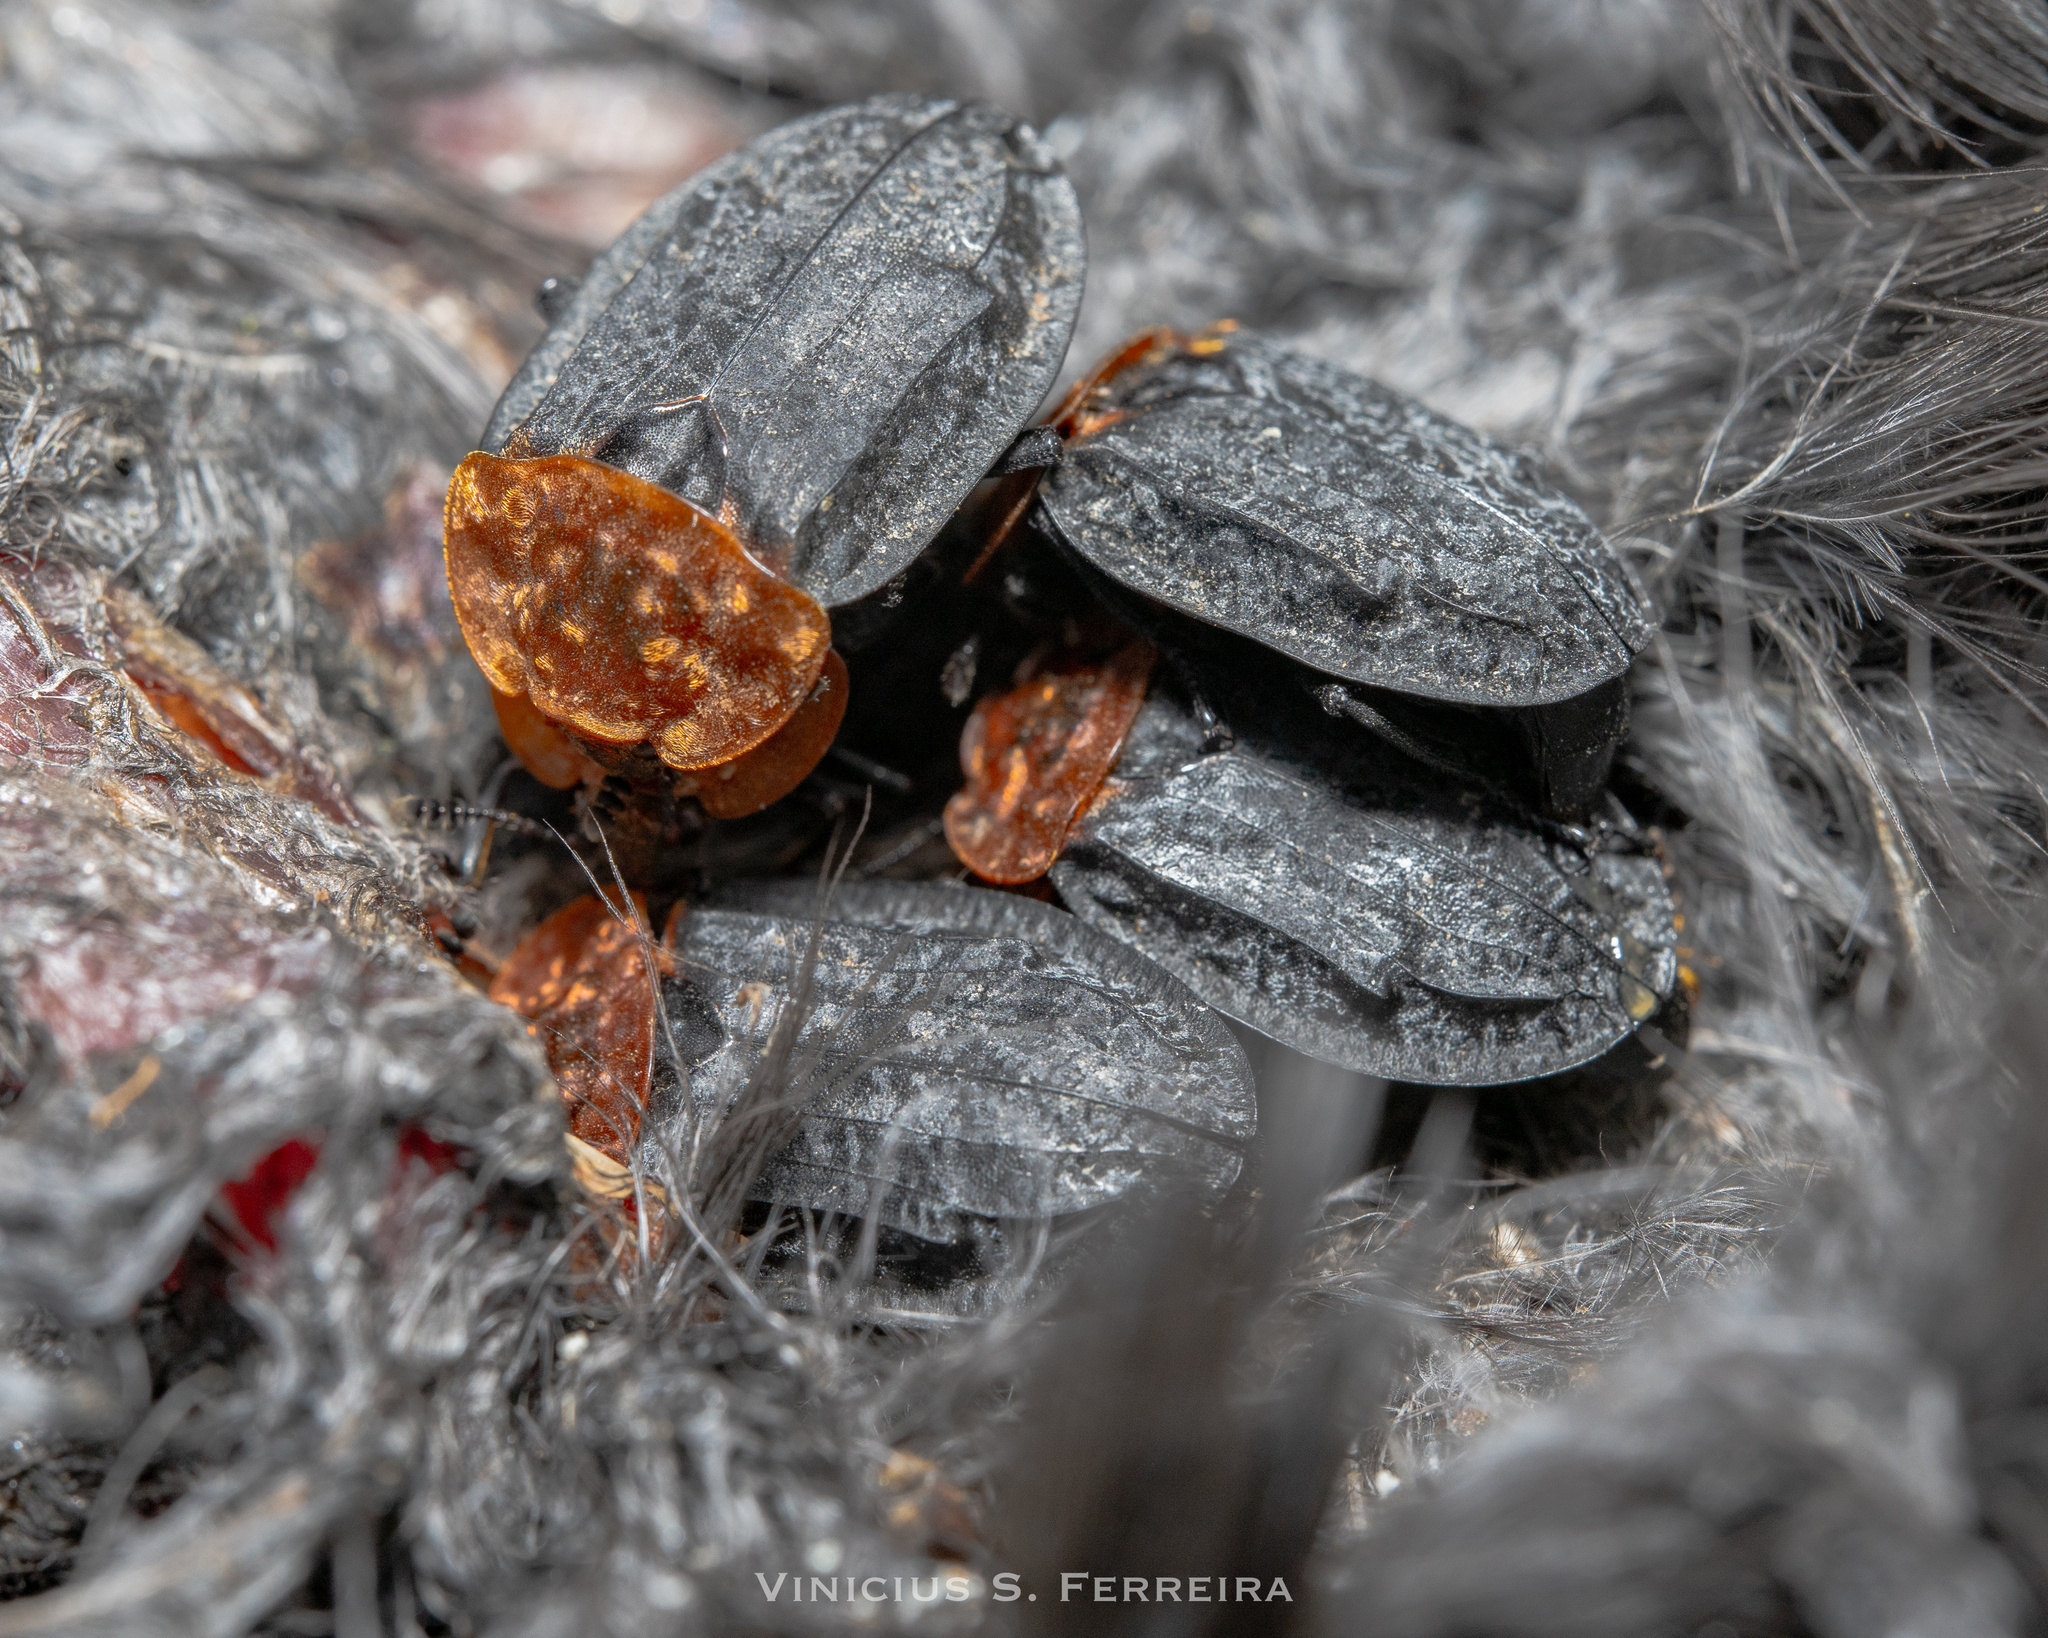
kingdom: Animalia
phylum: Arthropoda
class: Insecta
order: Coleoptera
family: Staphylinidae
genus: Oiceoptoma
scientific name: Oiceoptoma thoracicum
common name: Red-breasted carrion beetle
